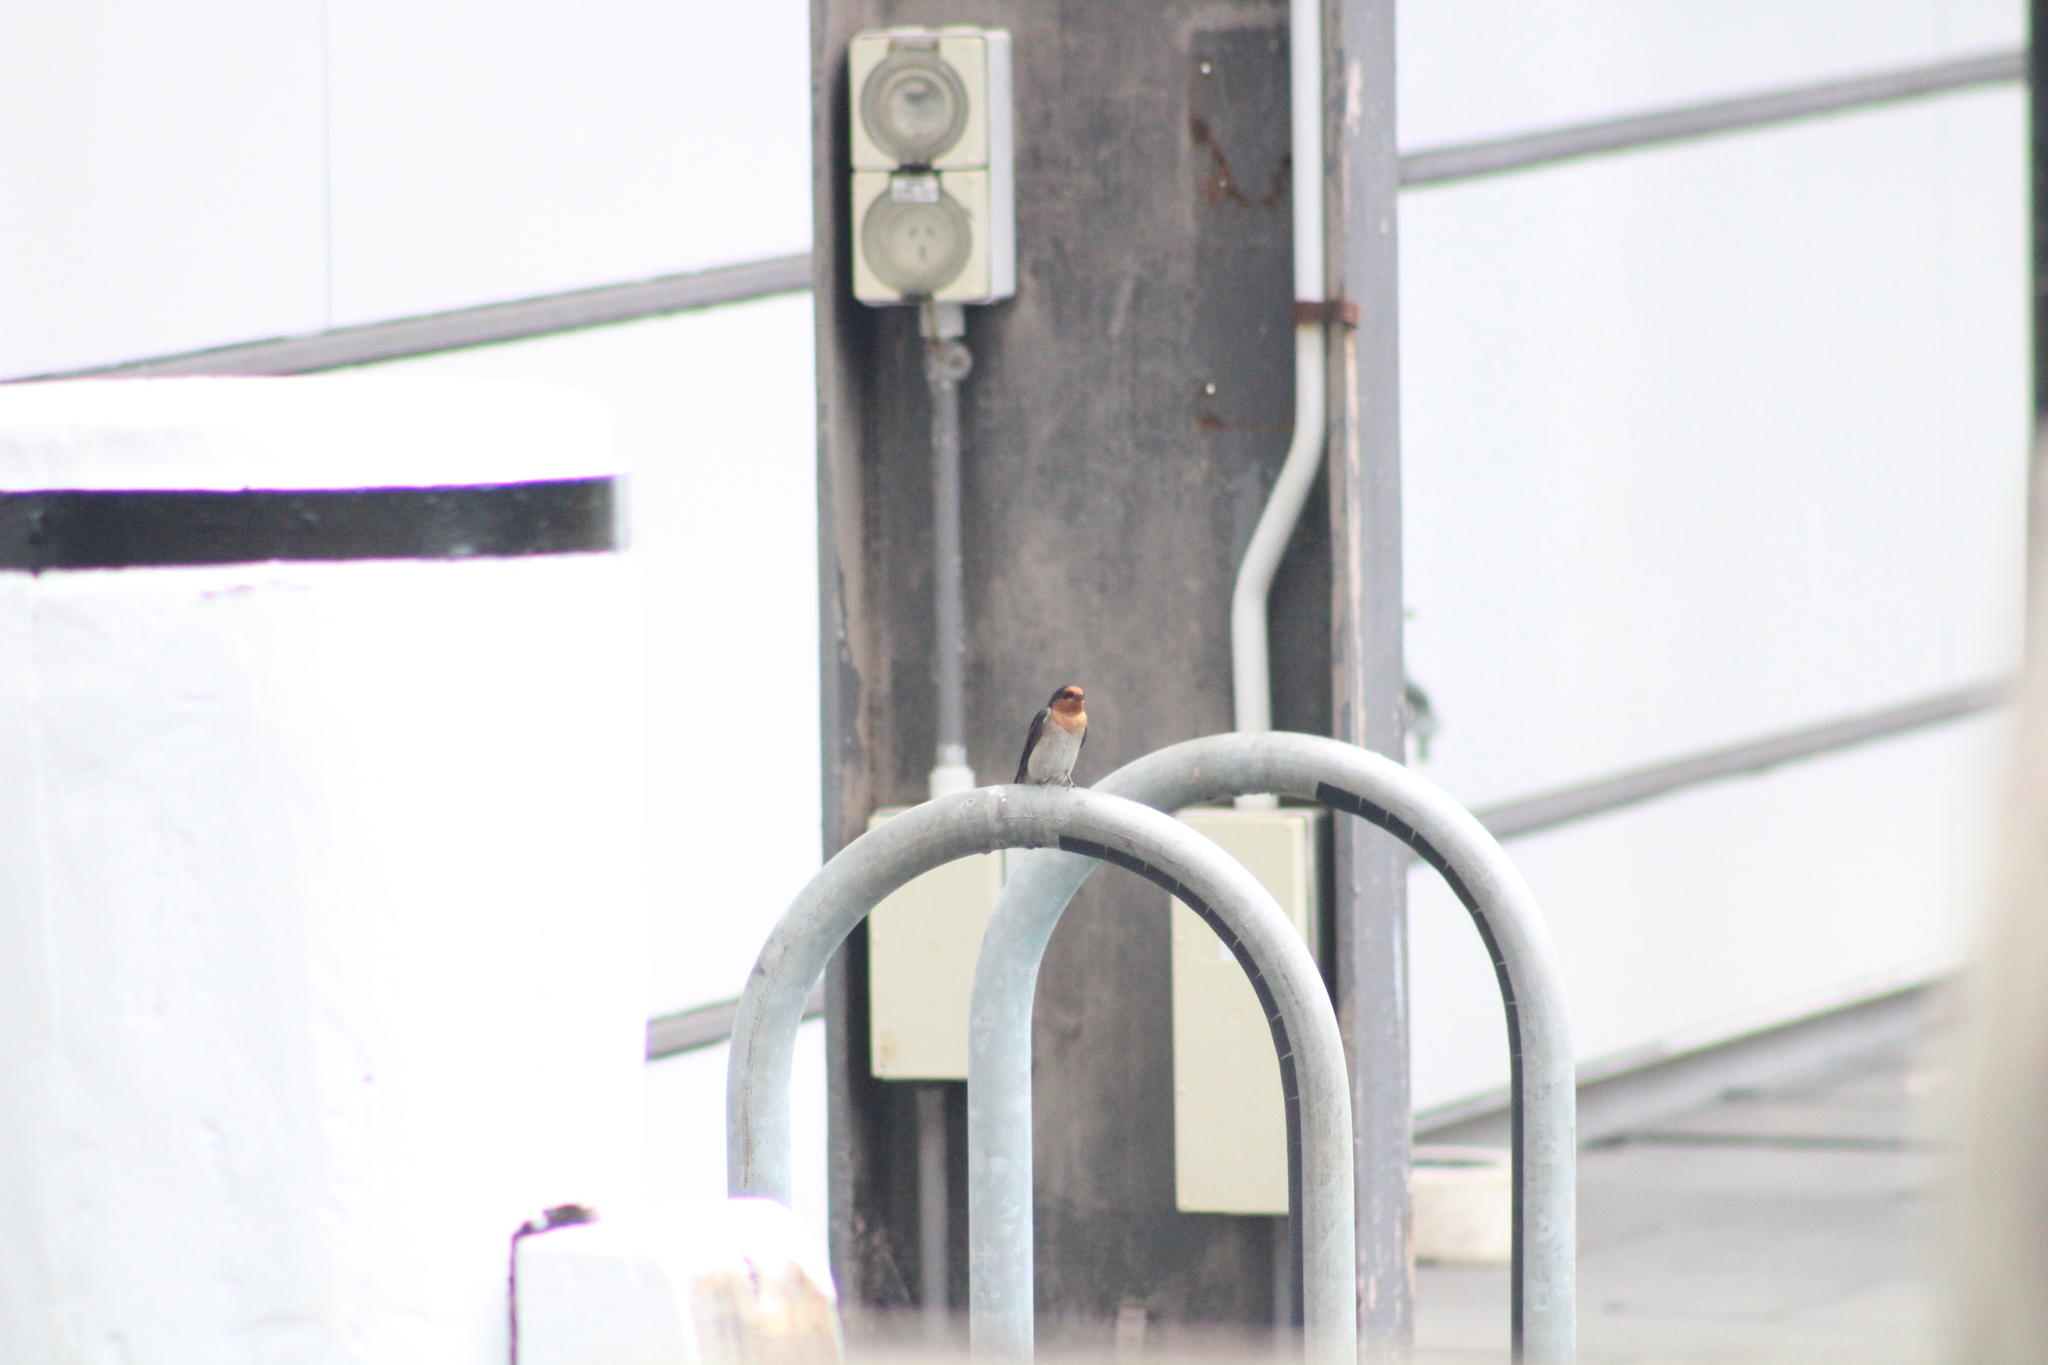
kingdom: Animalia
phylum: Chordata
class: Aves
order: Passeriformes
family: Hirundinidae
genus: Hirundo
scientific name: Hirundo neoxena
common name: Welcome swallow
